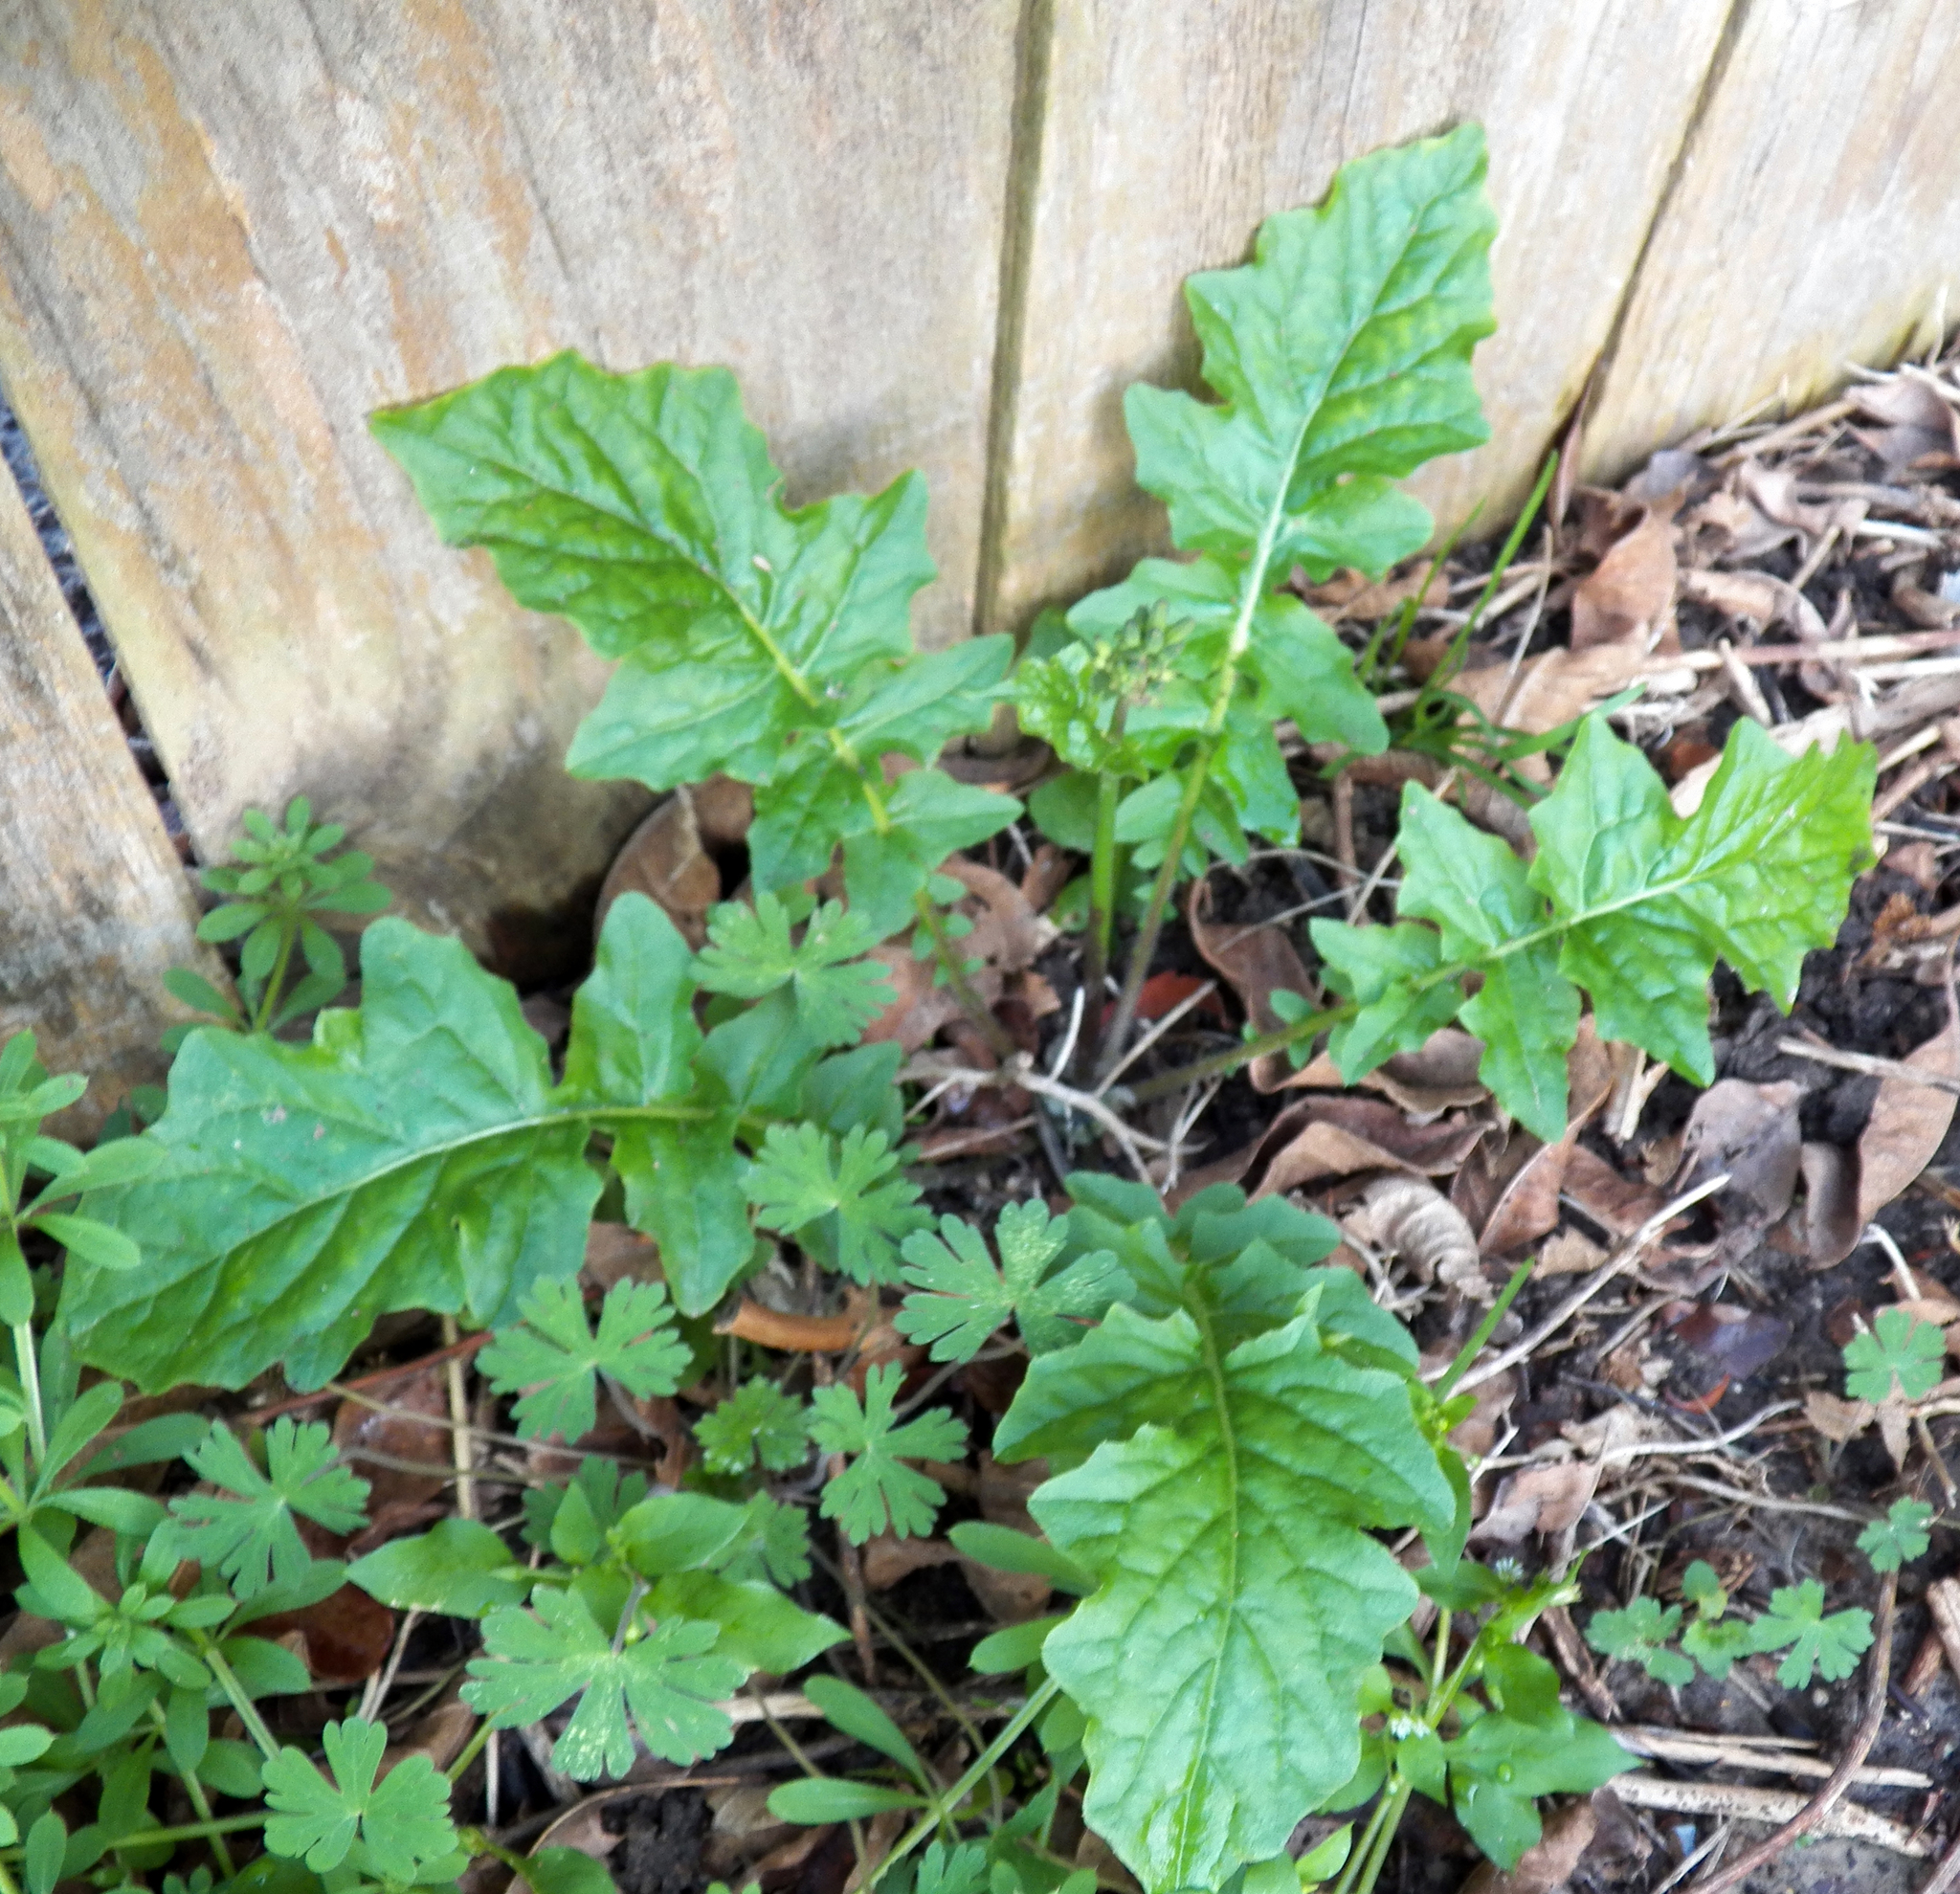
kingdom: Plantae
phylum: Tracheophyta
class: Magnoliopsida
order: Asterales
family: Asteraceae
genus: Youngia
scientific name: Youngia japonica
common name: Oriental false hawksbeard
